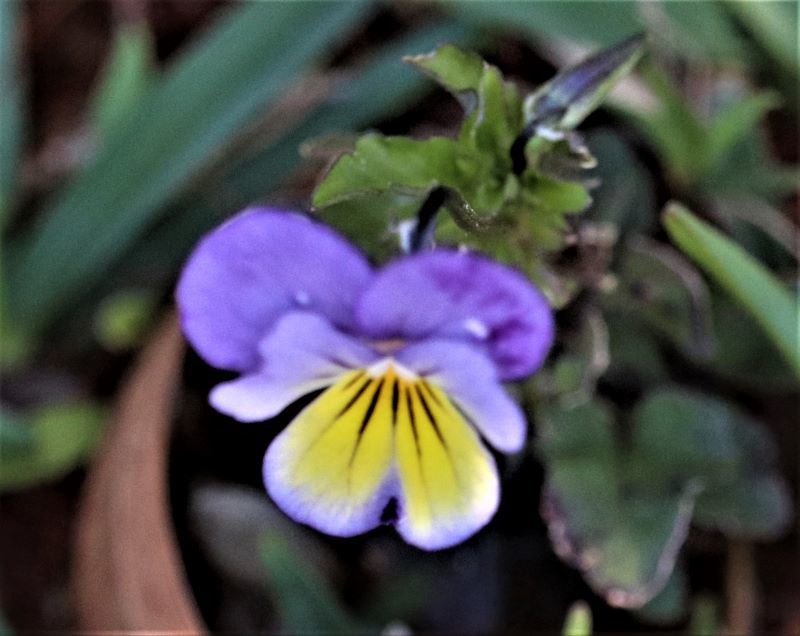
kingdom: Plantae
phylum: Tracheophyta
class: Magnoliopsida
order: Malpighiales
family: Violaceae
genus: Viola
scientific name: Viola williamsii
